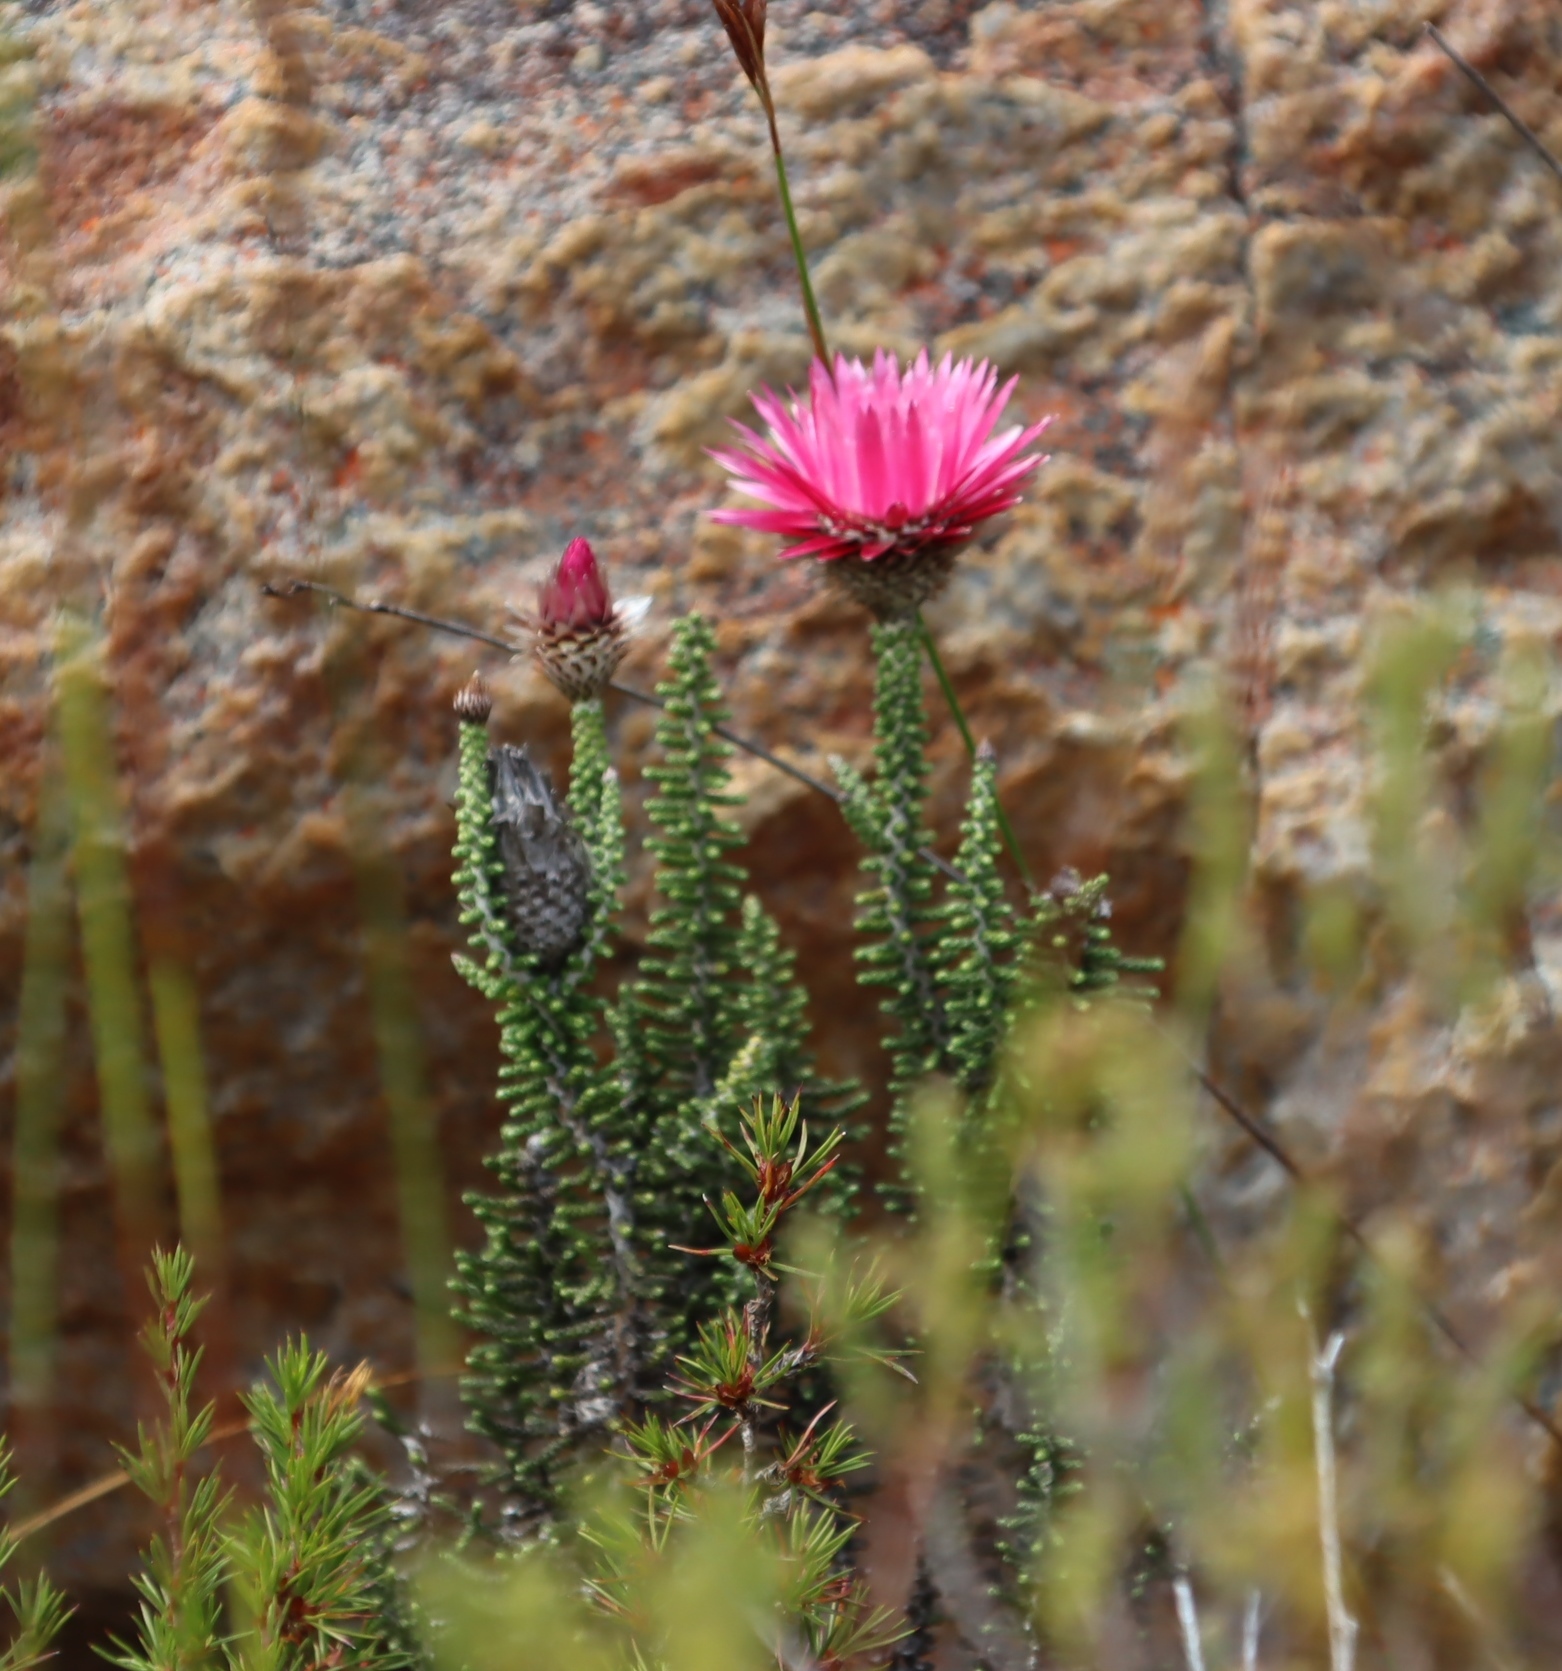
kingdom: Plantae
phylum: Tracheophyta
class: Magnoliopsida
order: Asterales
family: Asteraceae
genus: Phaenocoma
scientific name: Phaenocoma prolifera
